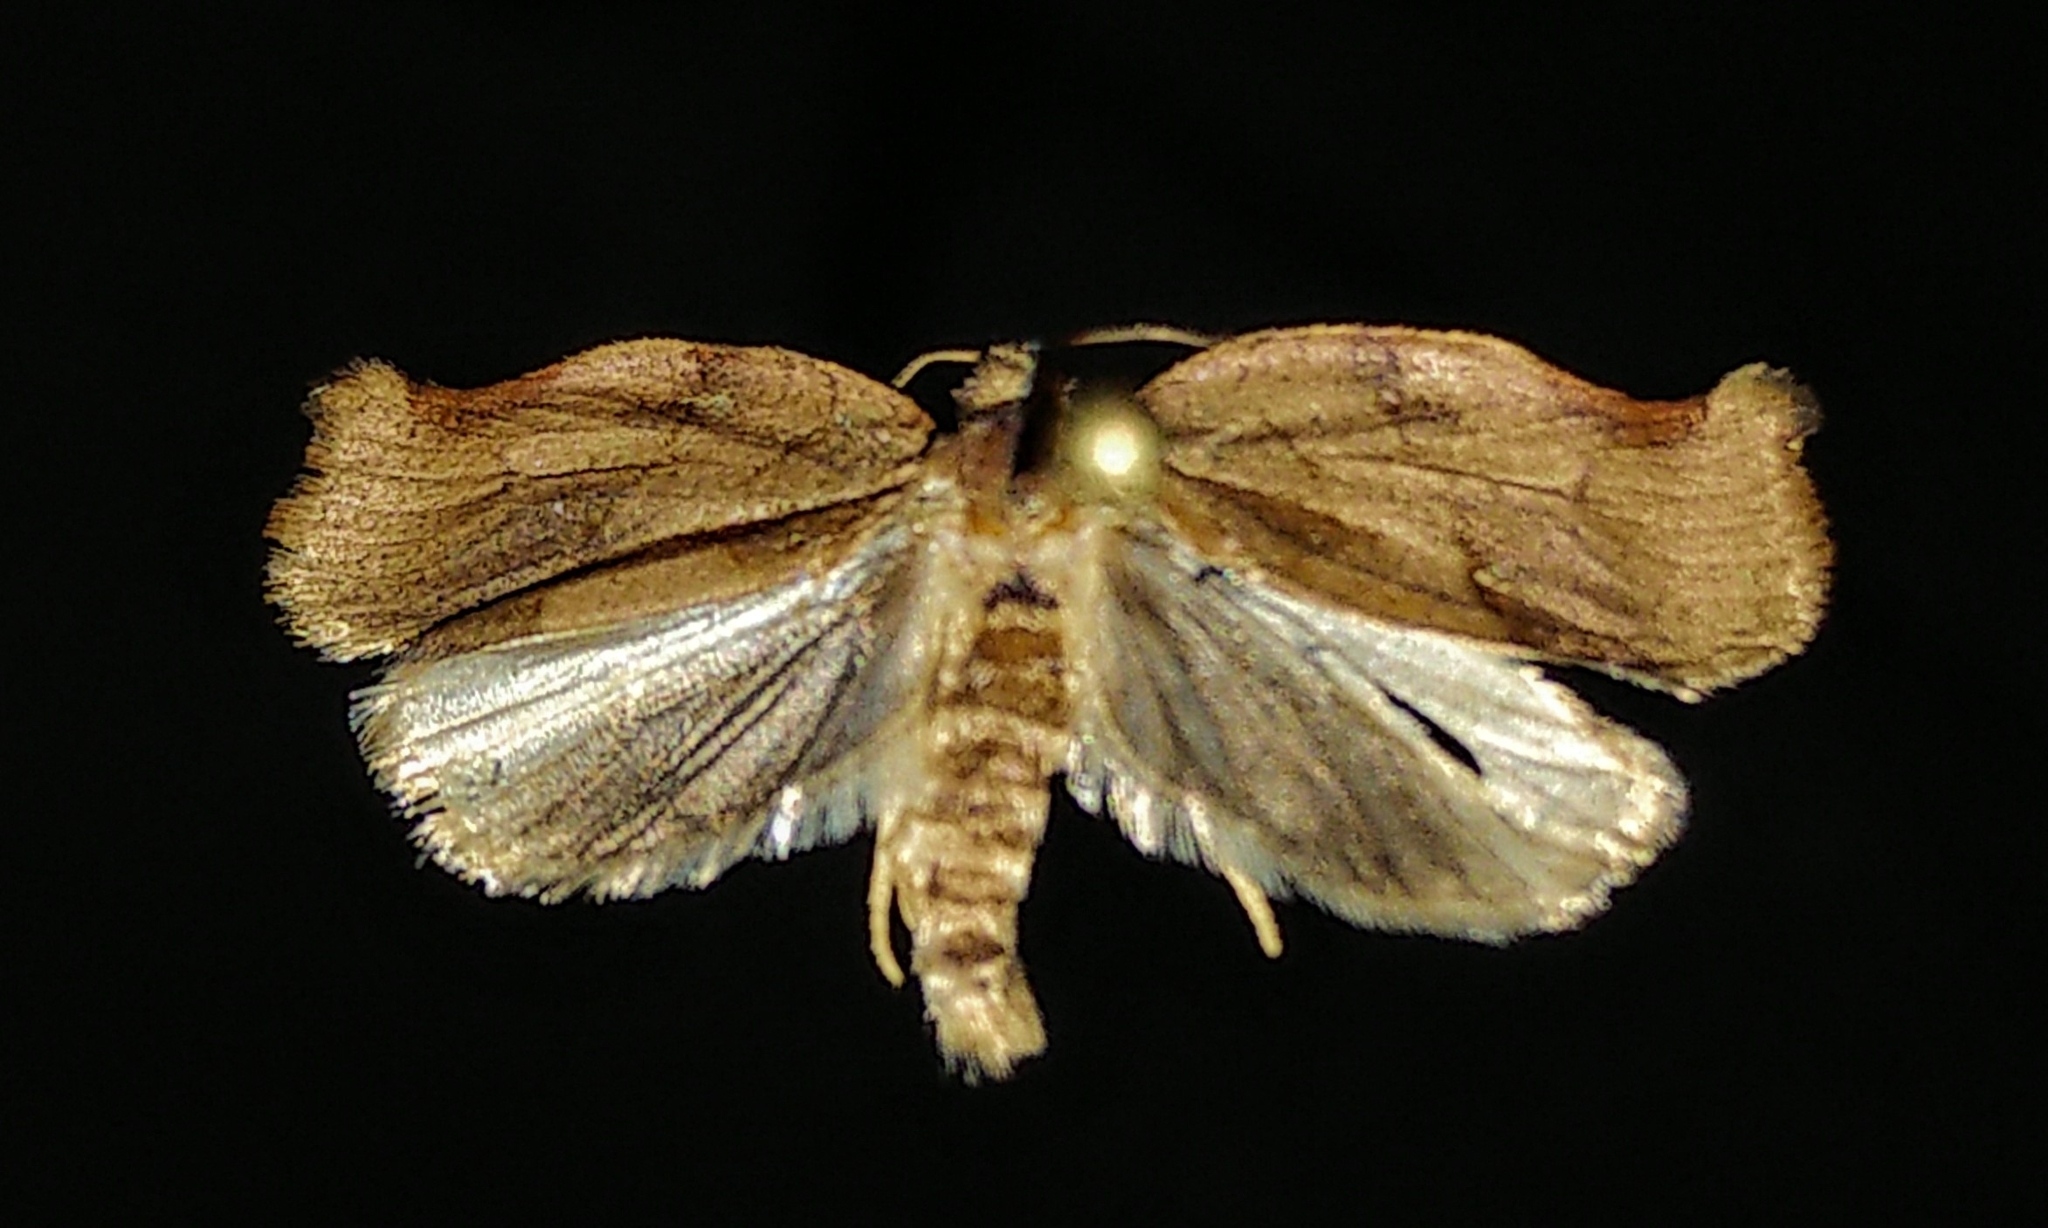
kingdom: Animalia
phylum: Arthropoda
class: Insecta
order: Lepidoptera
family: Tortricidae
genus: Archips
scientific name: Archips purpurana
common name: Omnivorous leafroller
